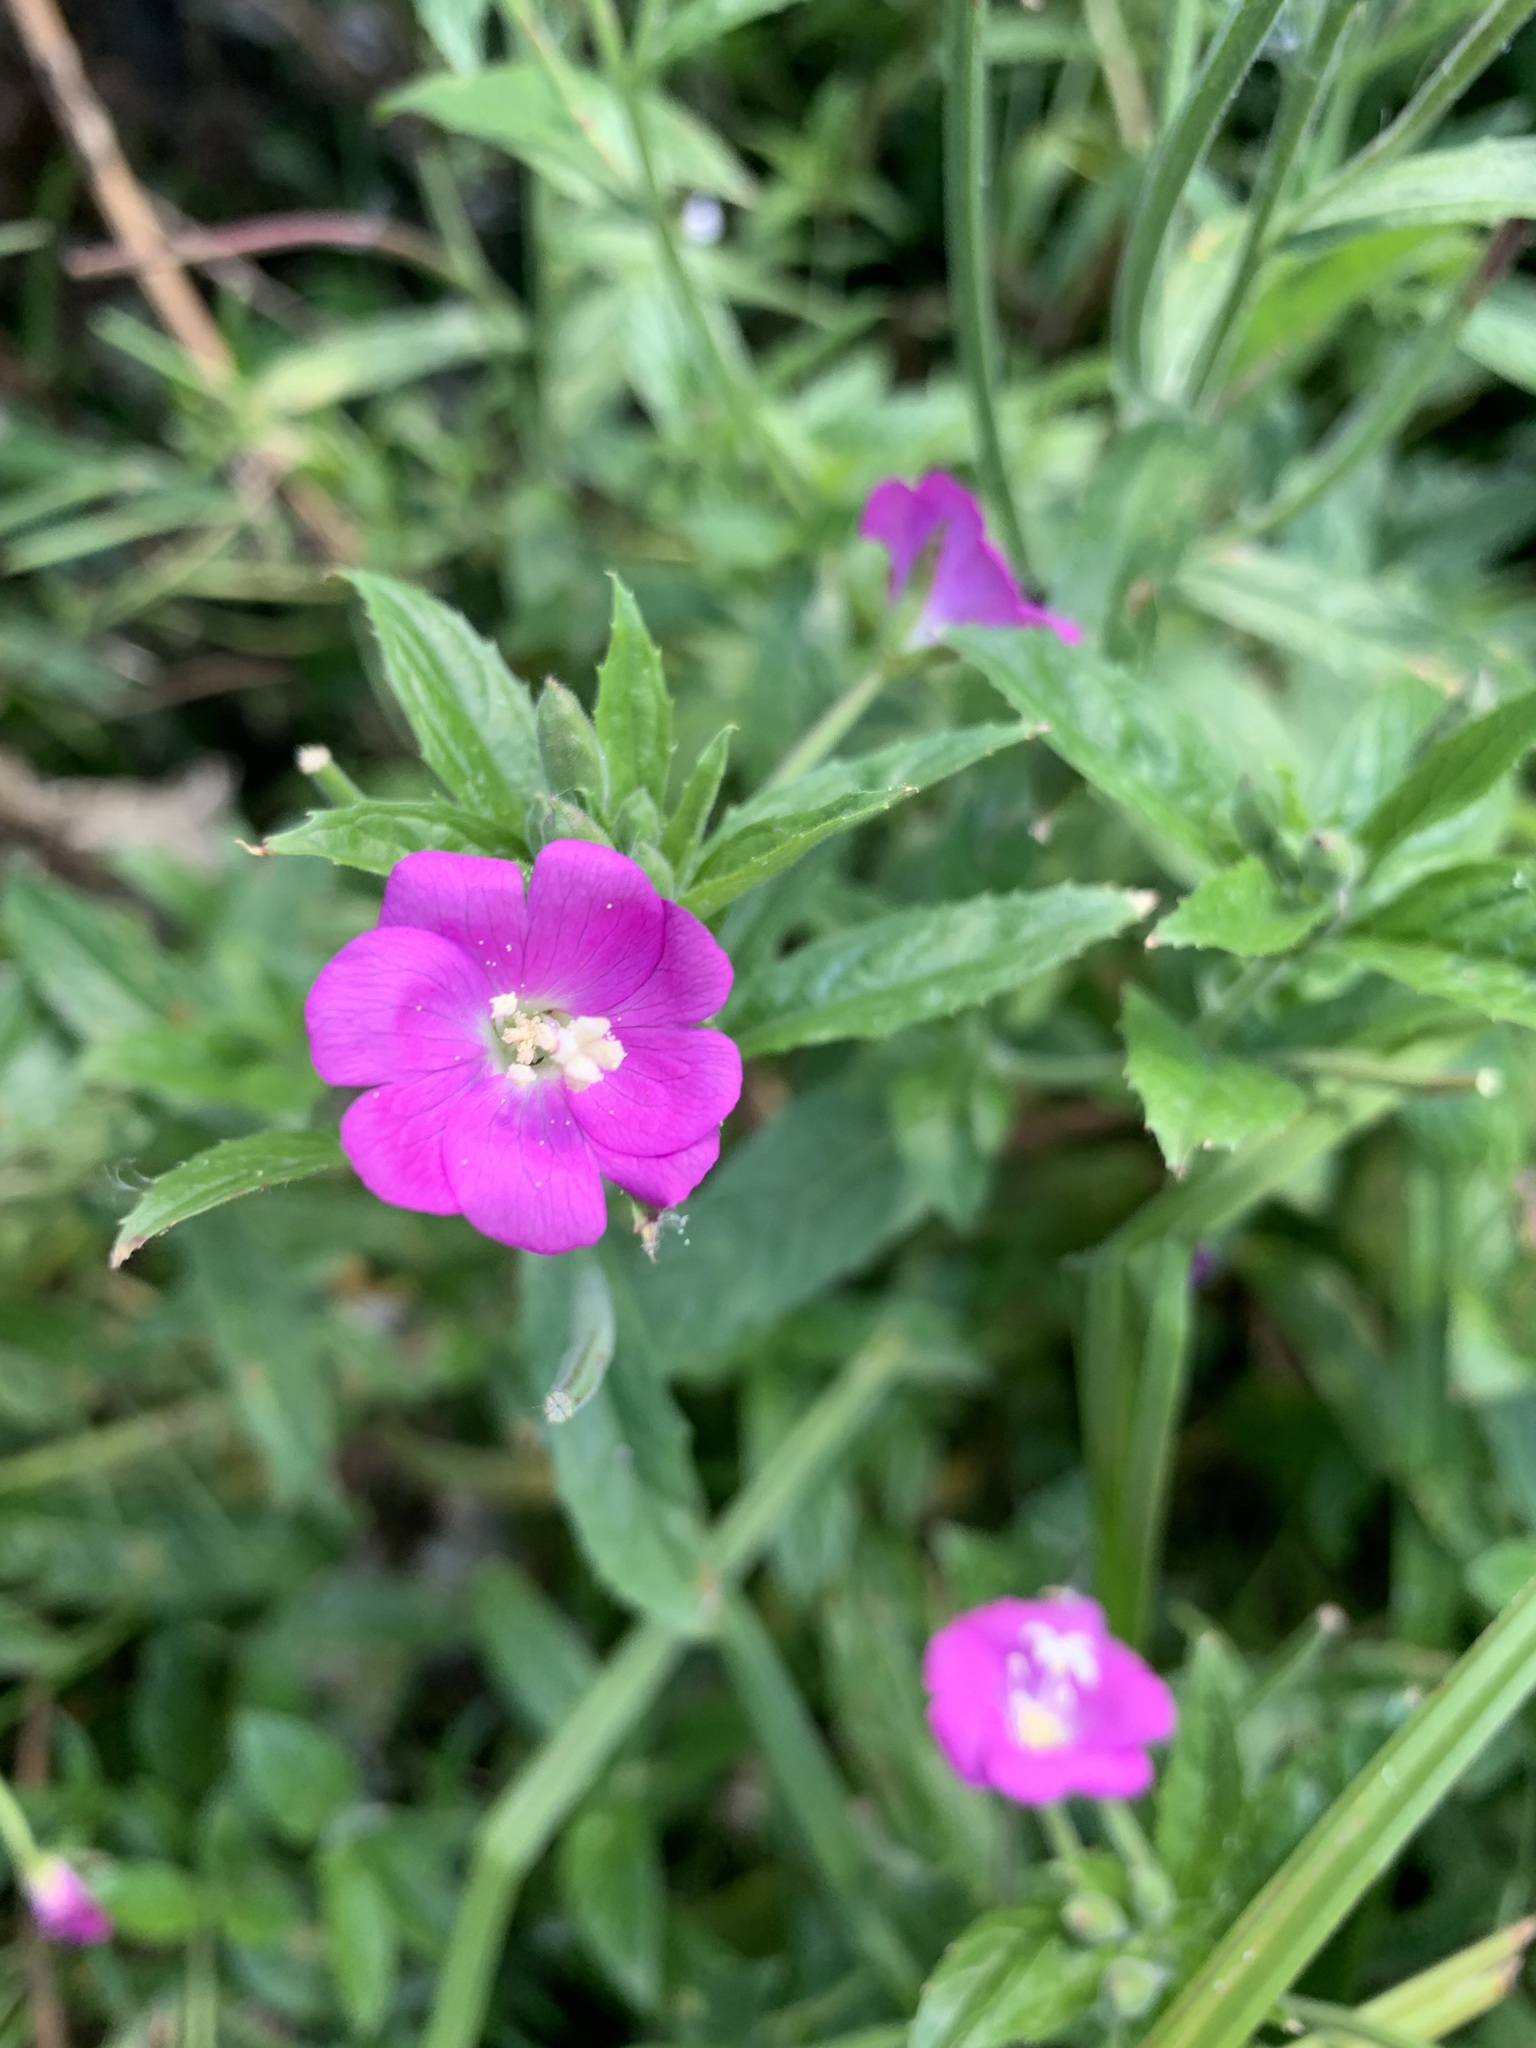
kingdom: Plantae
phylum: Tracheophyta
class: Magnoliopsida
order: Myrtales
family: Onagraceae
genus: Epilobium
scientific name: Epilobium hirsutum
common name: Great willowherb
